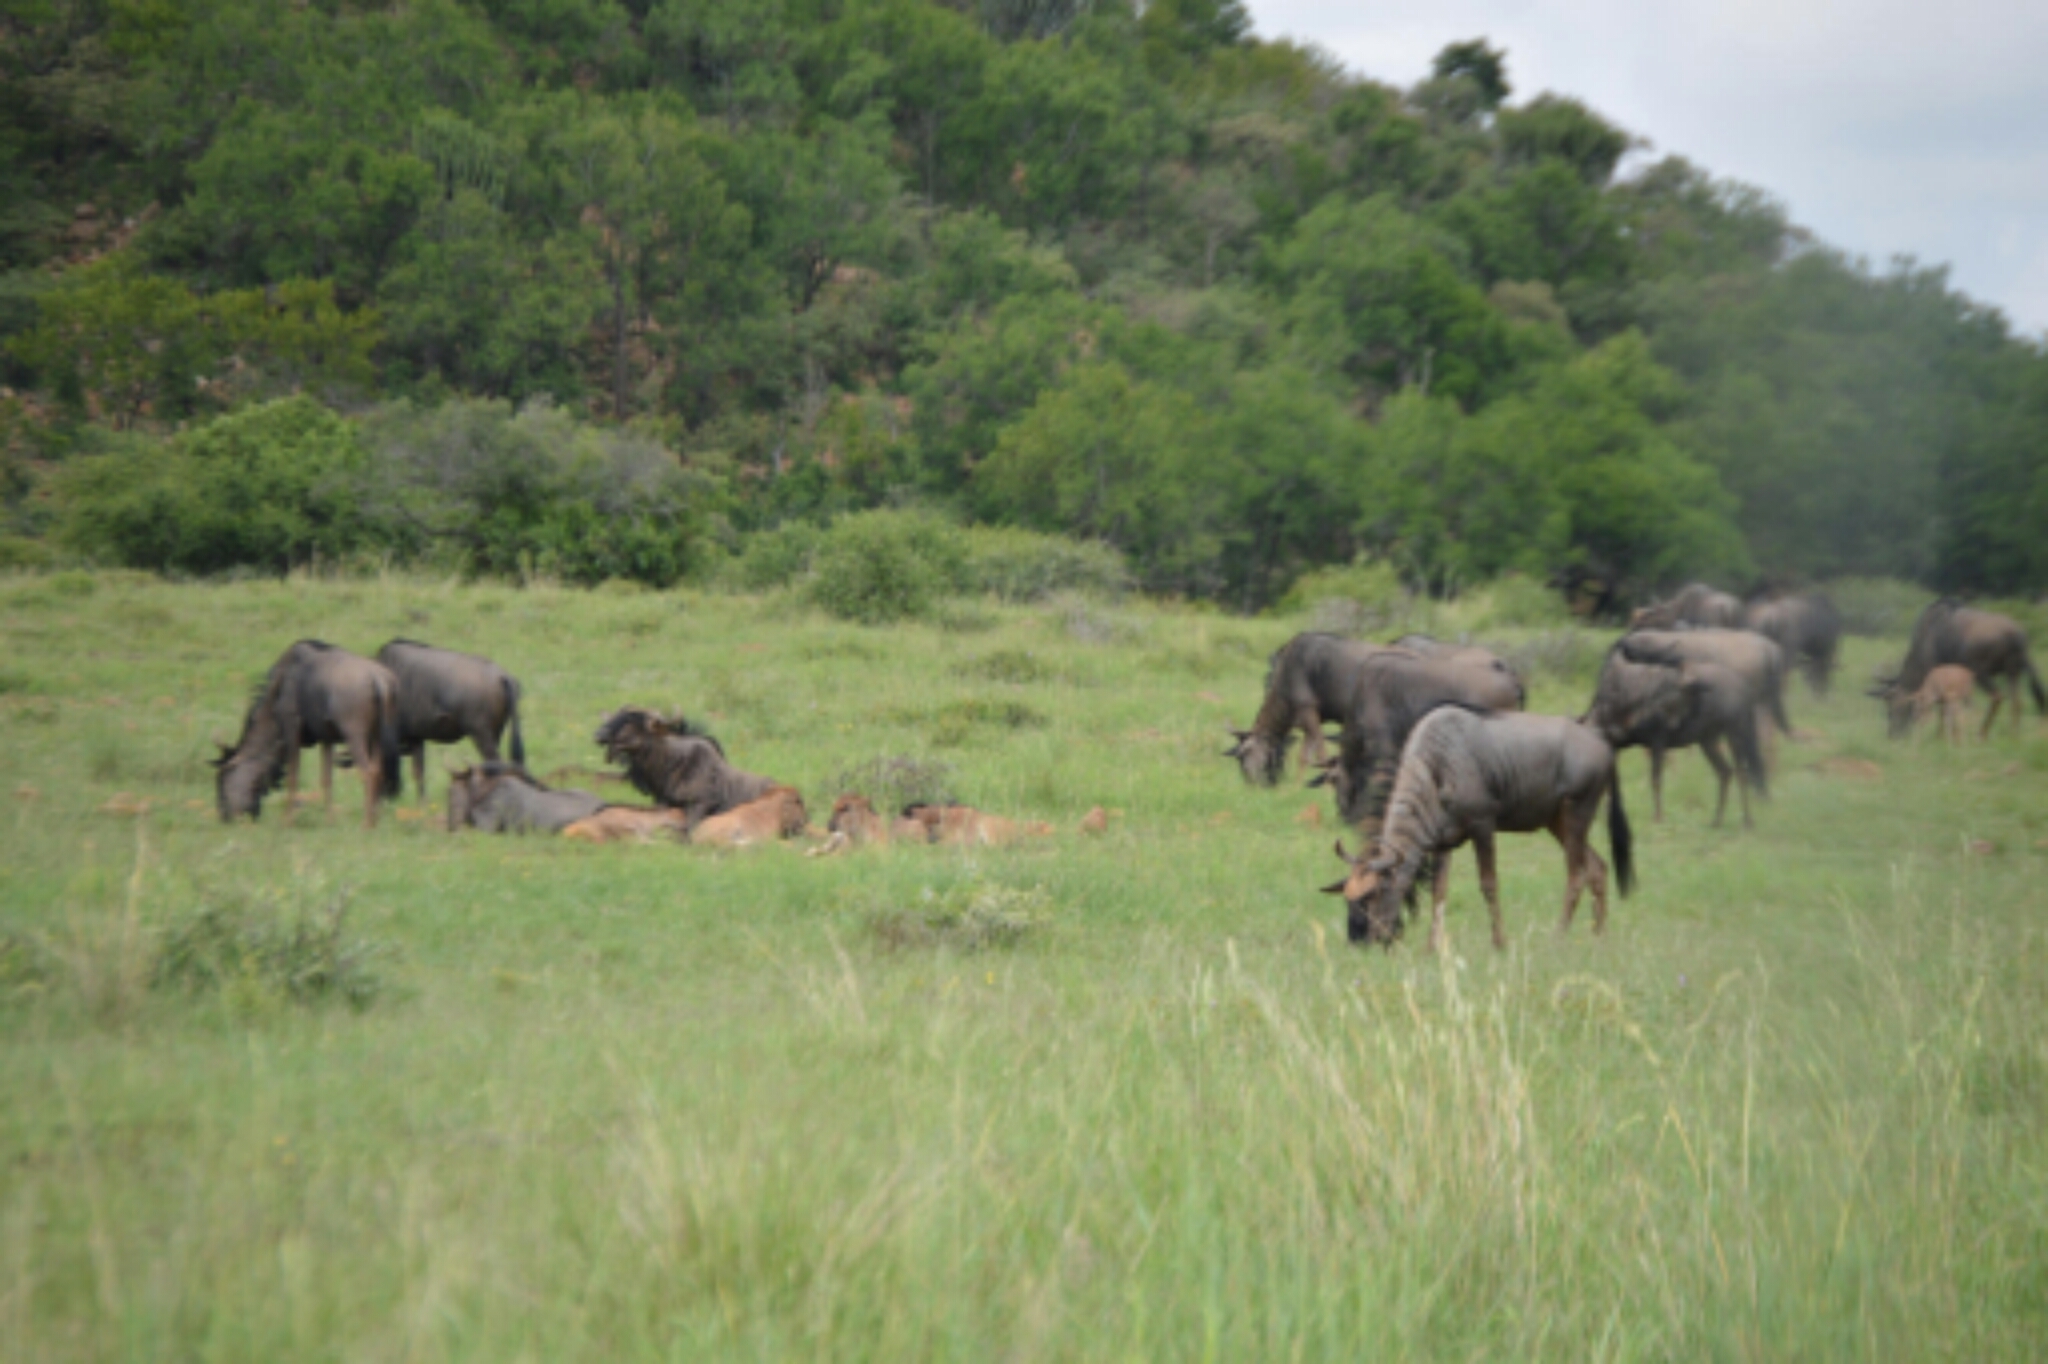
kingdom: Animalia
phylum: Chordata
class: Mammalia
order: Artiodactyla
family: Bovidae
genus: Connochaetes
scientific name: Connochaetes taurinus
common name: Blue wildebeest
